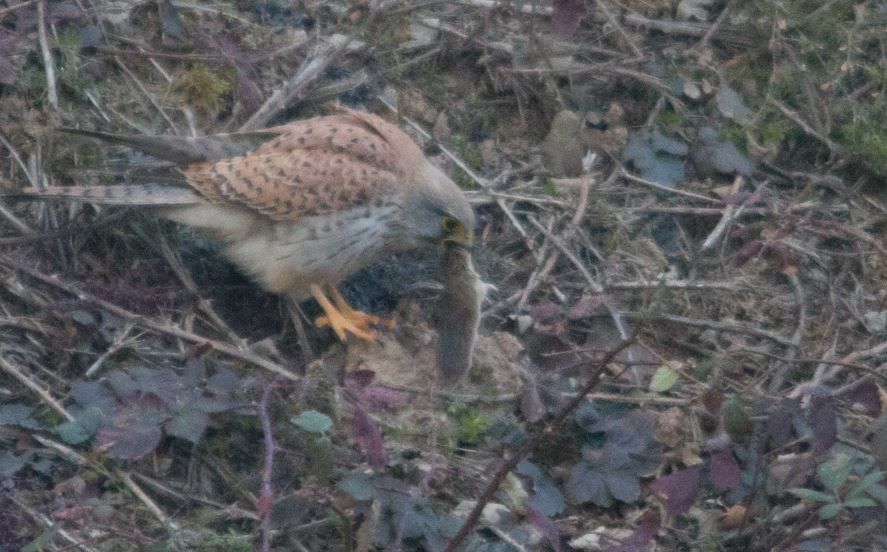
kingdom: Animalia
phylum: Chordata
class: Aves
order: Falconiformes
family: Falconidae
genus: Falco
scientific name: Falco tinnunculus
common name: Common kestrel
